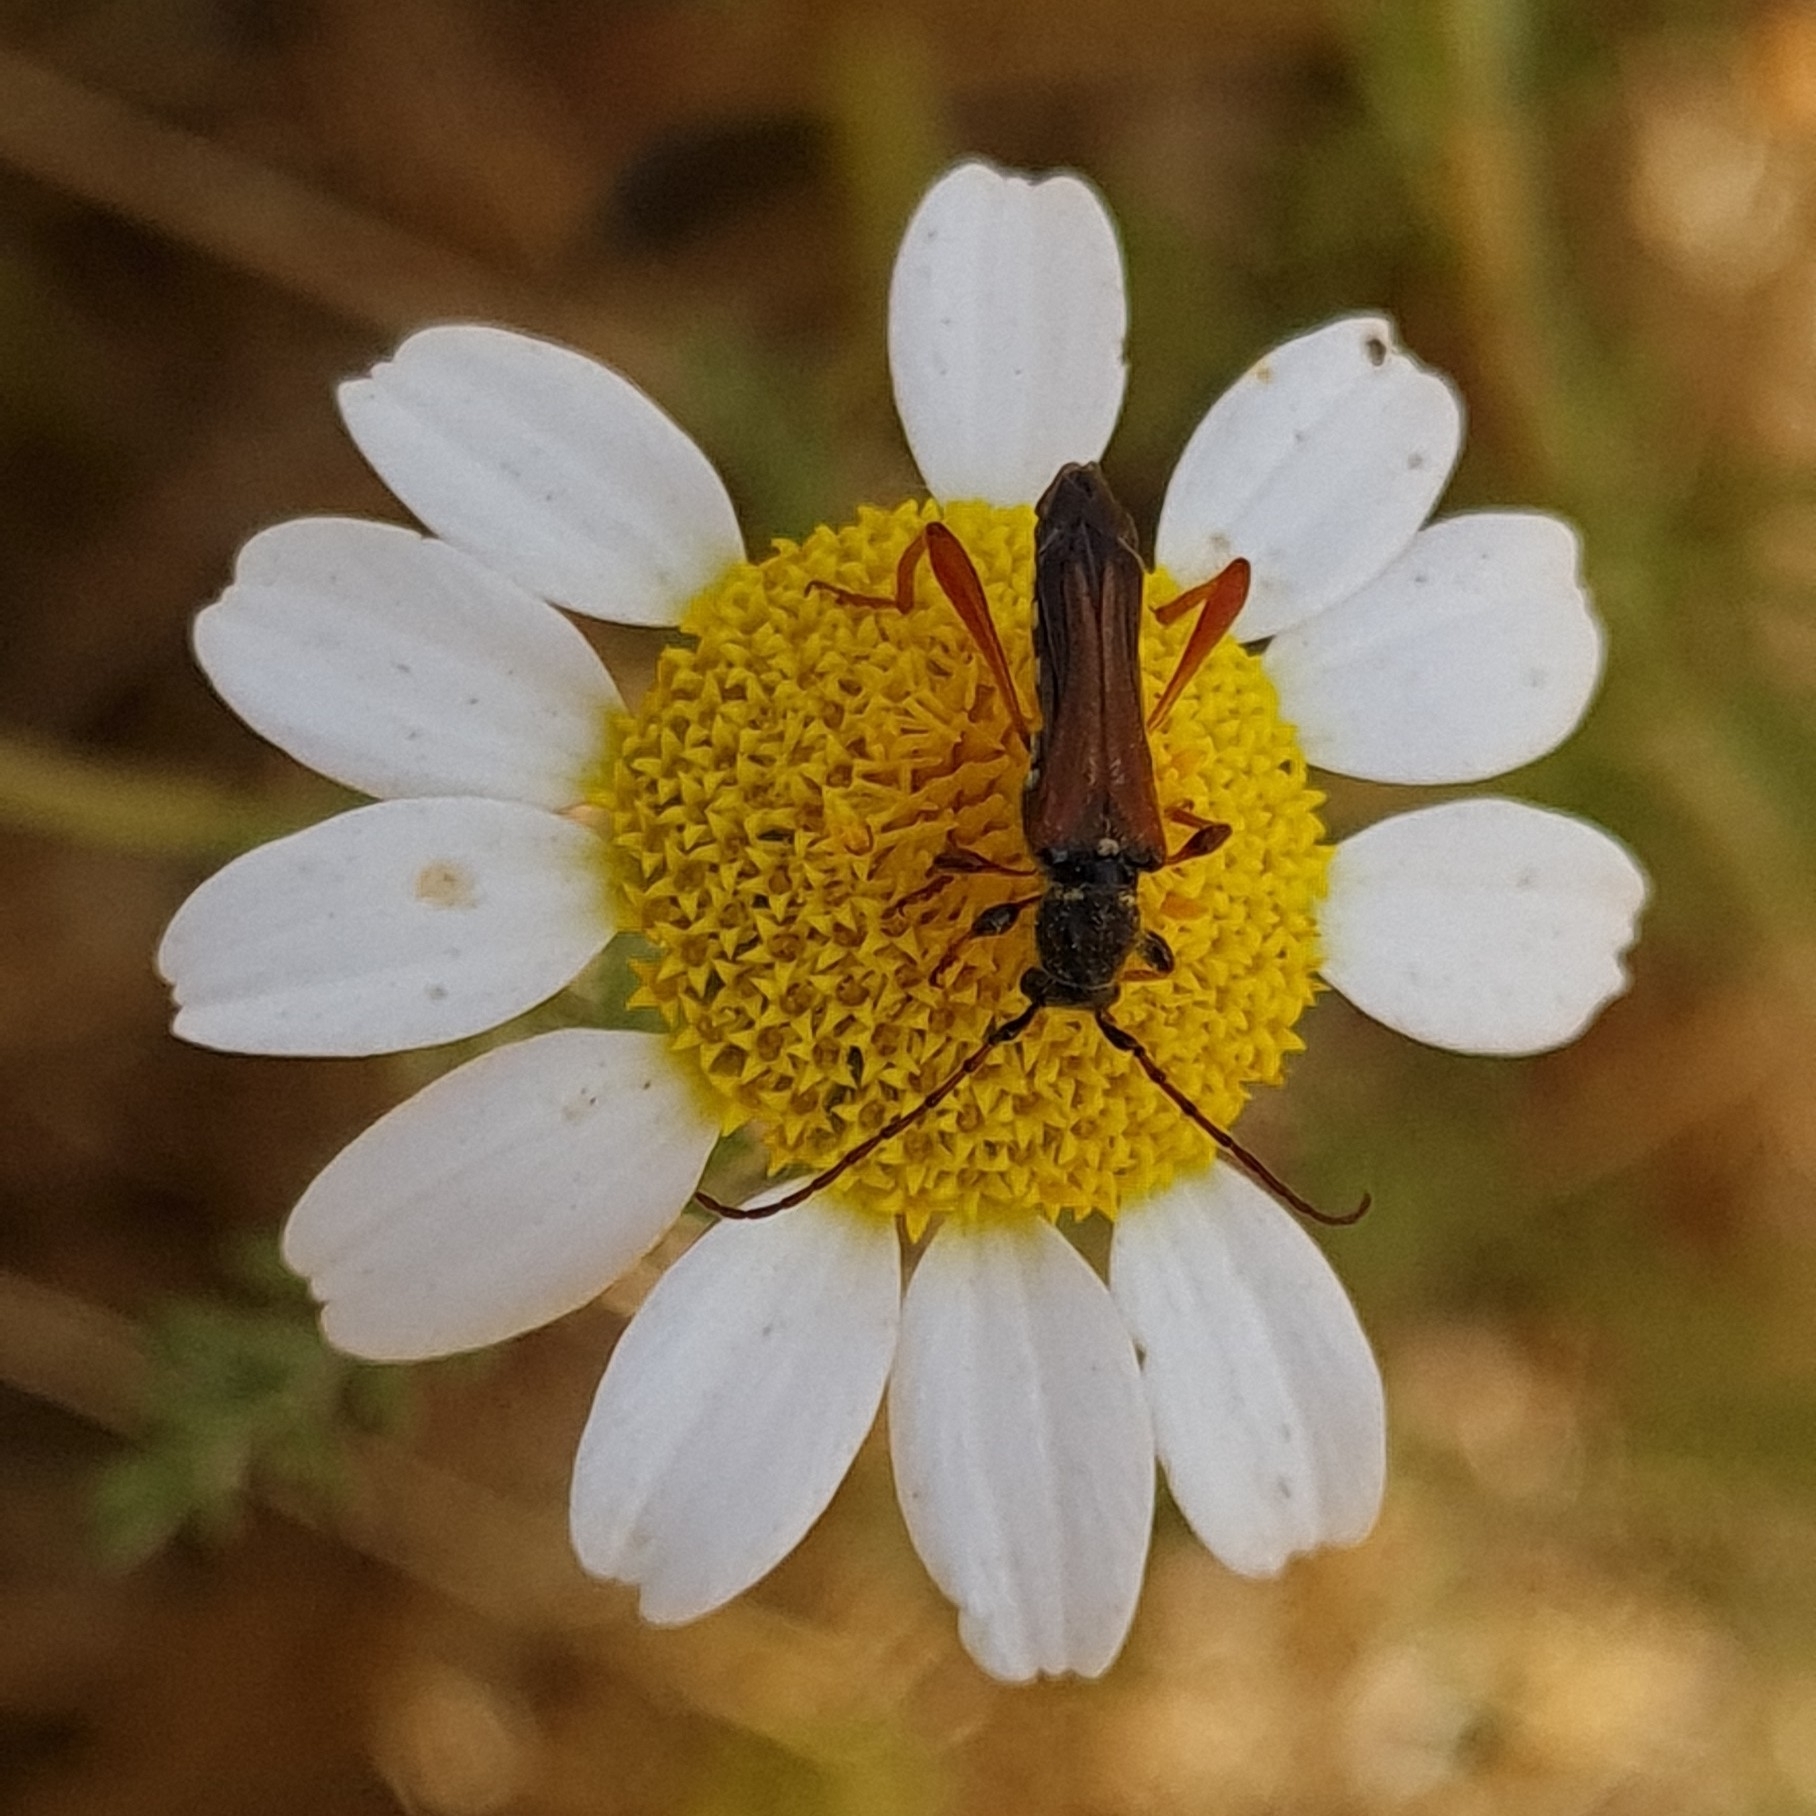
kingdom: Animalia
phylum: Arthropoda
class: Insecta
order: Coleoptera
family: Cerambycidae
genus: Stenopterus
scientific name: Stenopterus rufus
